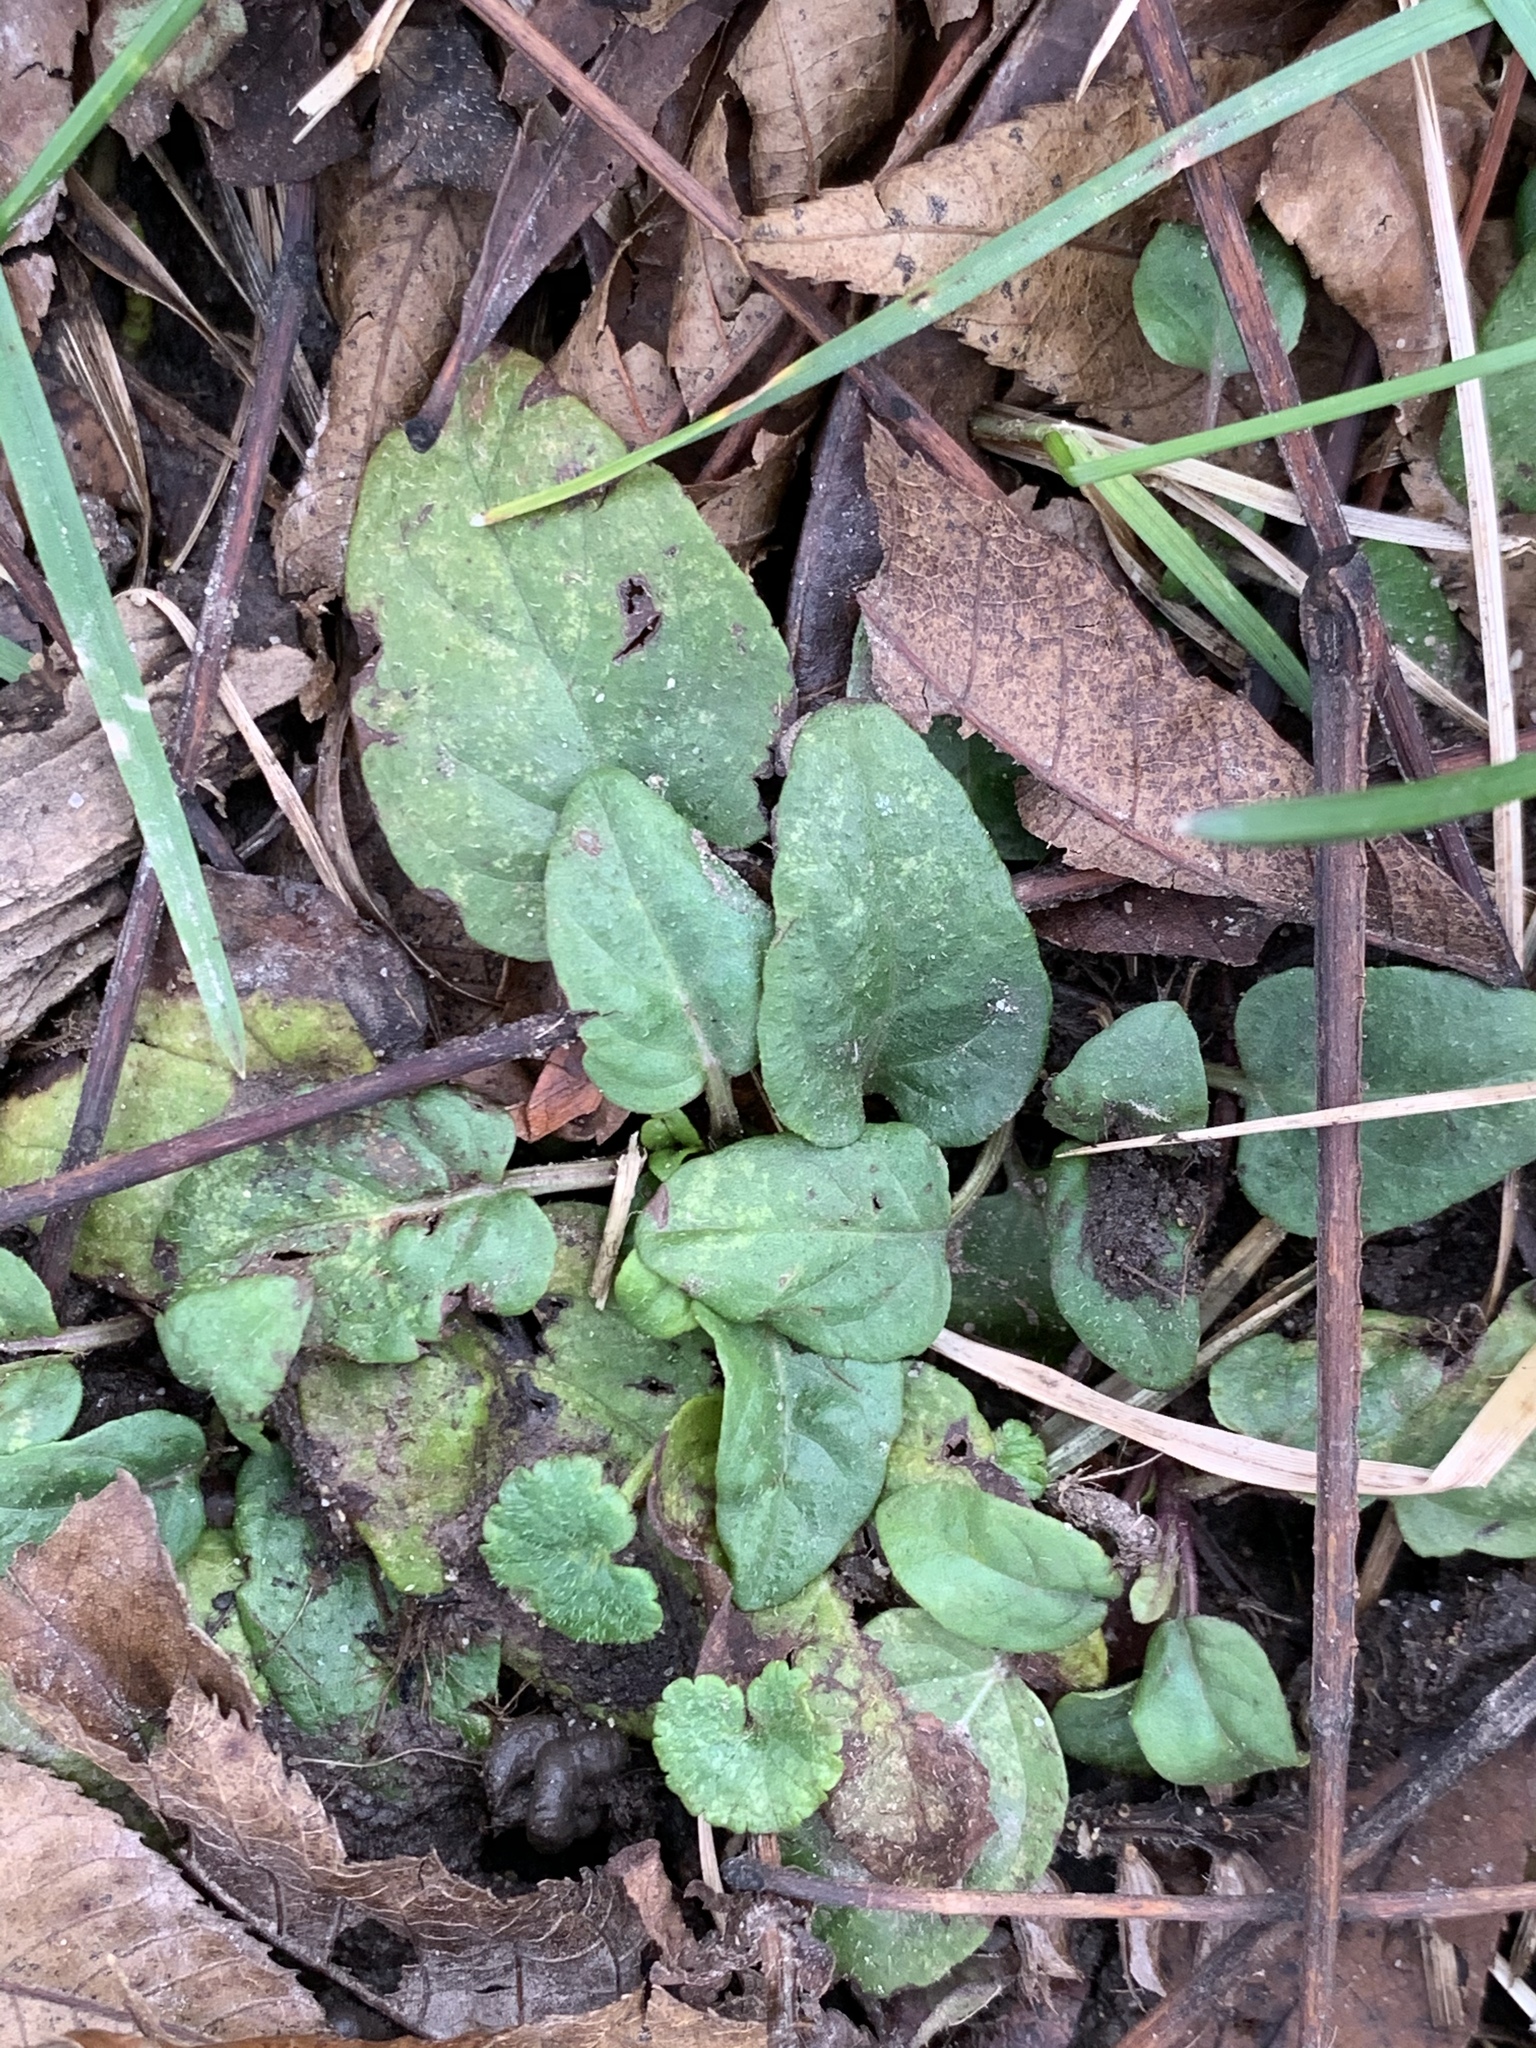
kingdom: Plantae
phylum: Tracheophyta
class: Magnoliopsida
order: Lamiales
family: Lamiaceae
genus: Prunella
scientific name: Prunella vulgaris
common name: Heal-all
